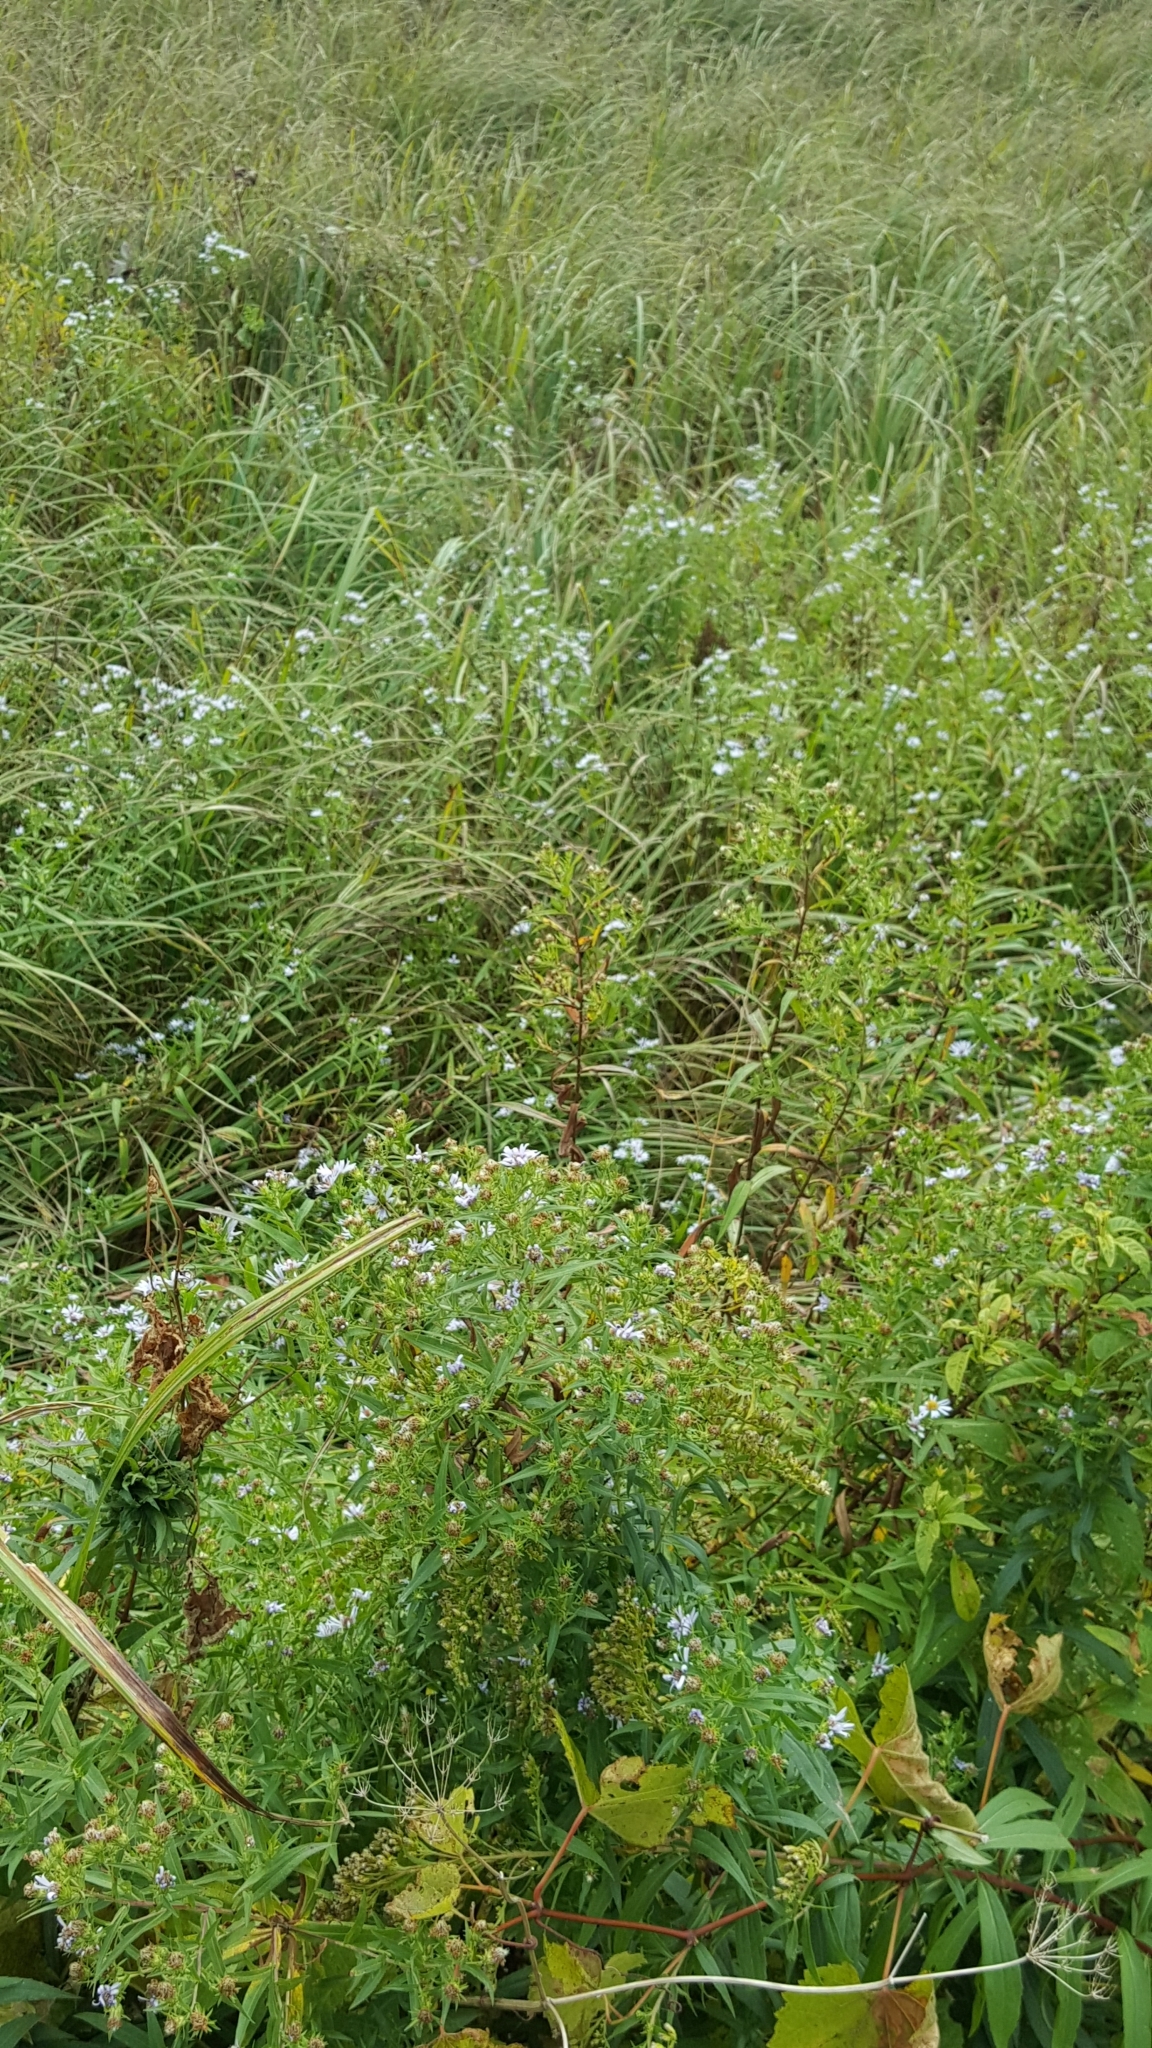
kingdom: Plantae
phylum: Tracheophyta
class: Magnoliopsida
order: Asterales
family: Asteraceae
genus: Symphyotrichum
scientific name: Symphyotrichum puniceum
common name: Bog aster
